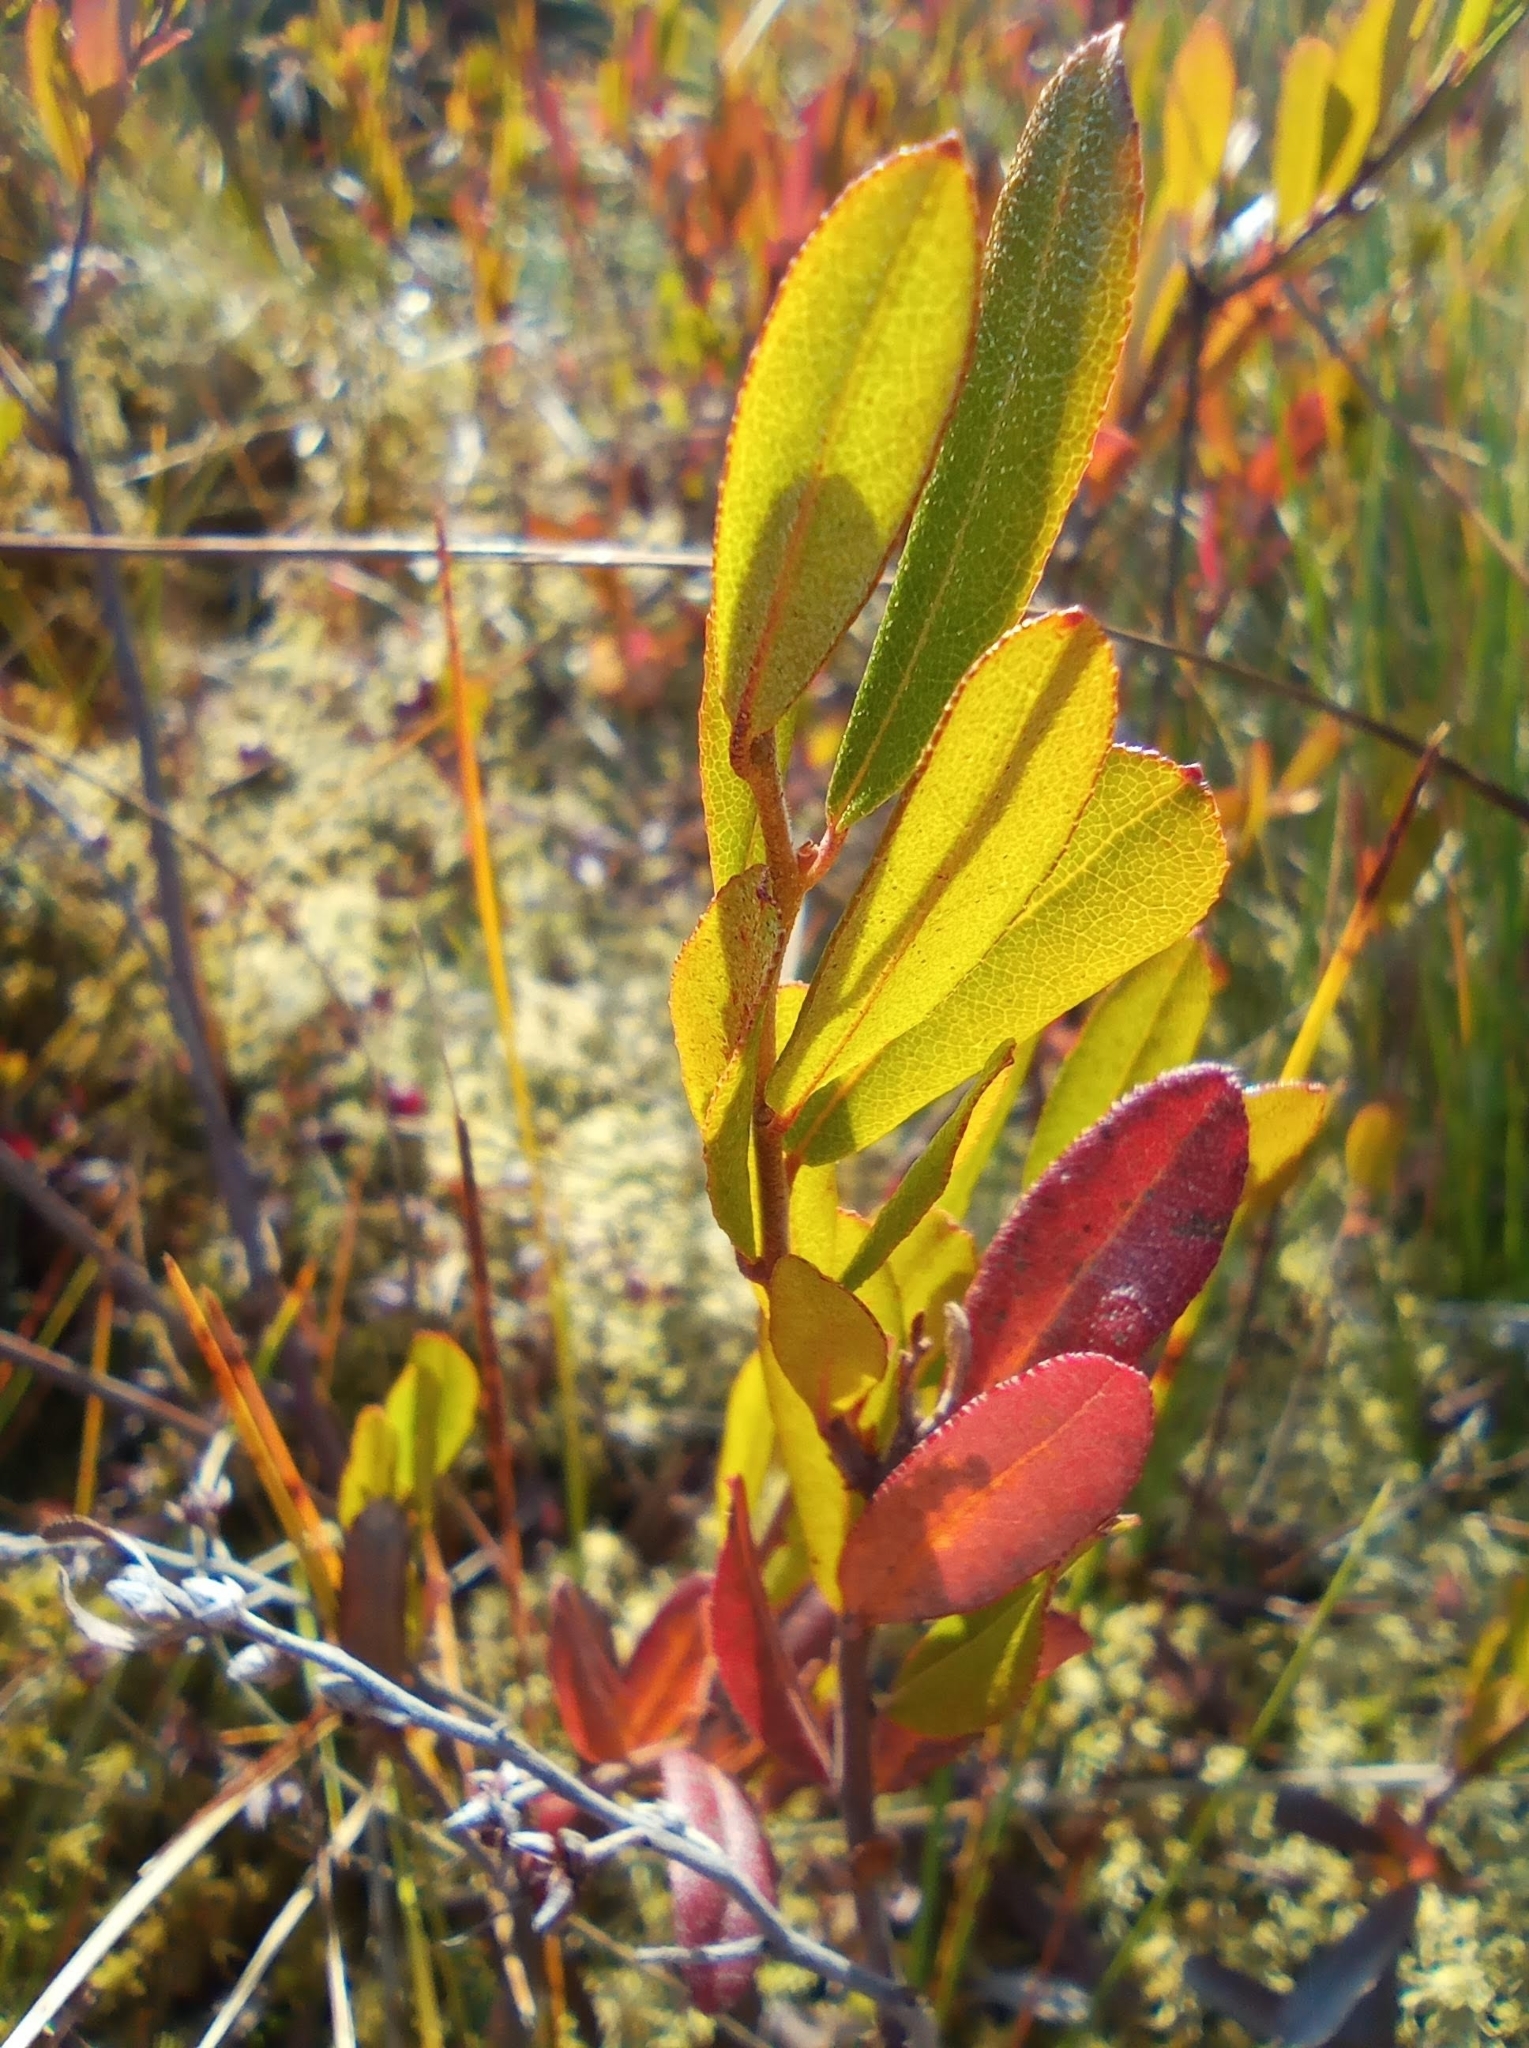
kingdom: Plantae
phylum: Tracheophyta
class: Magnoliopsida
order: Ericales
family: Ericaceae
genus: Chamaedaphne
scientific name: Chamaedaphne calyculata
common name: Leatherleaf
